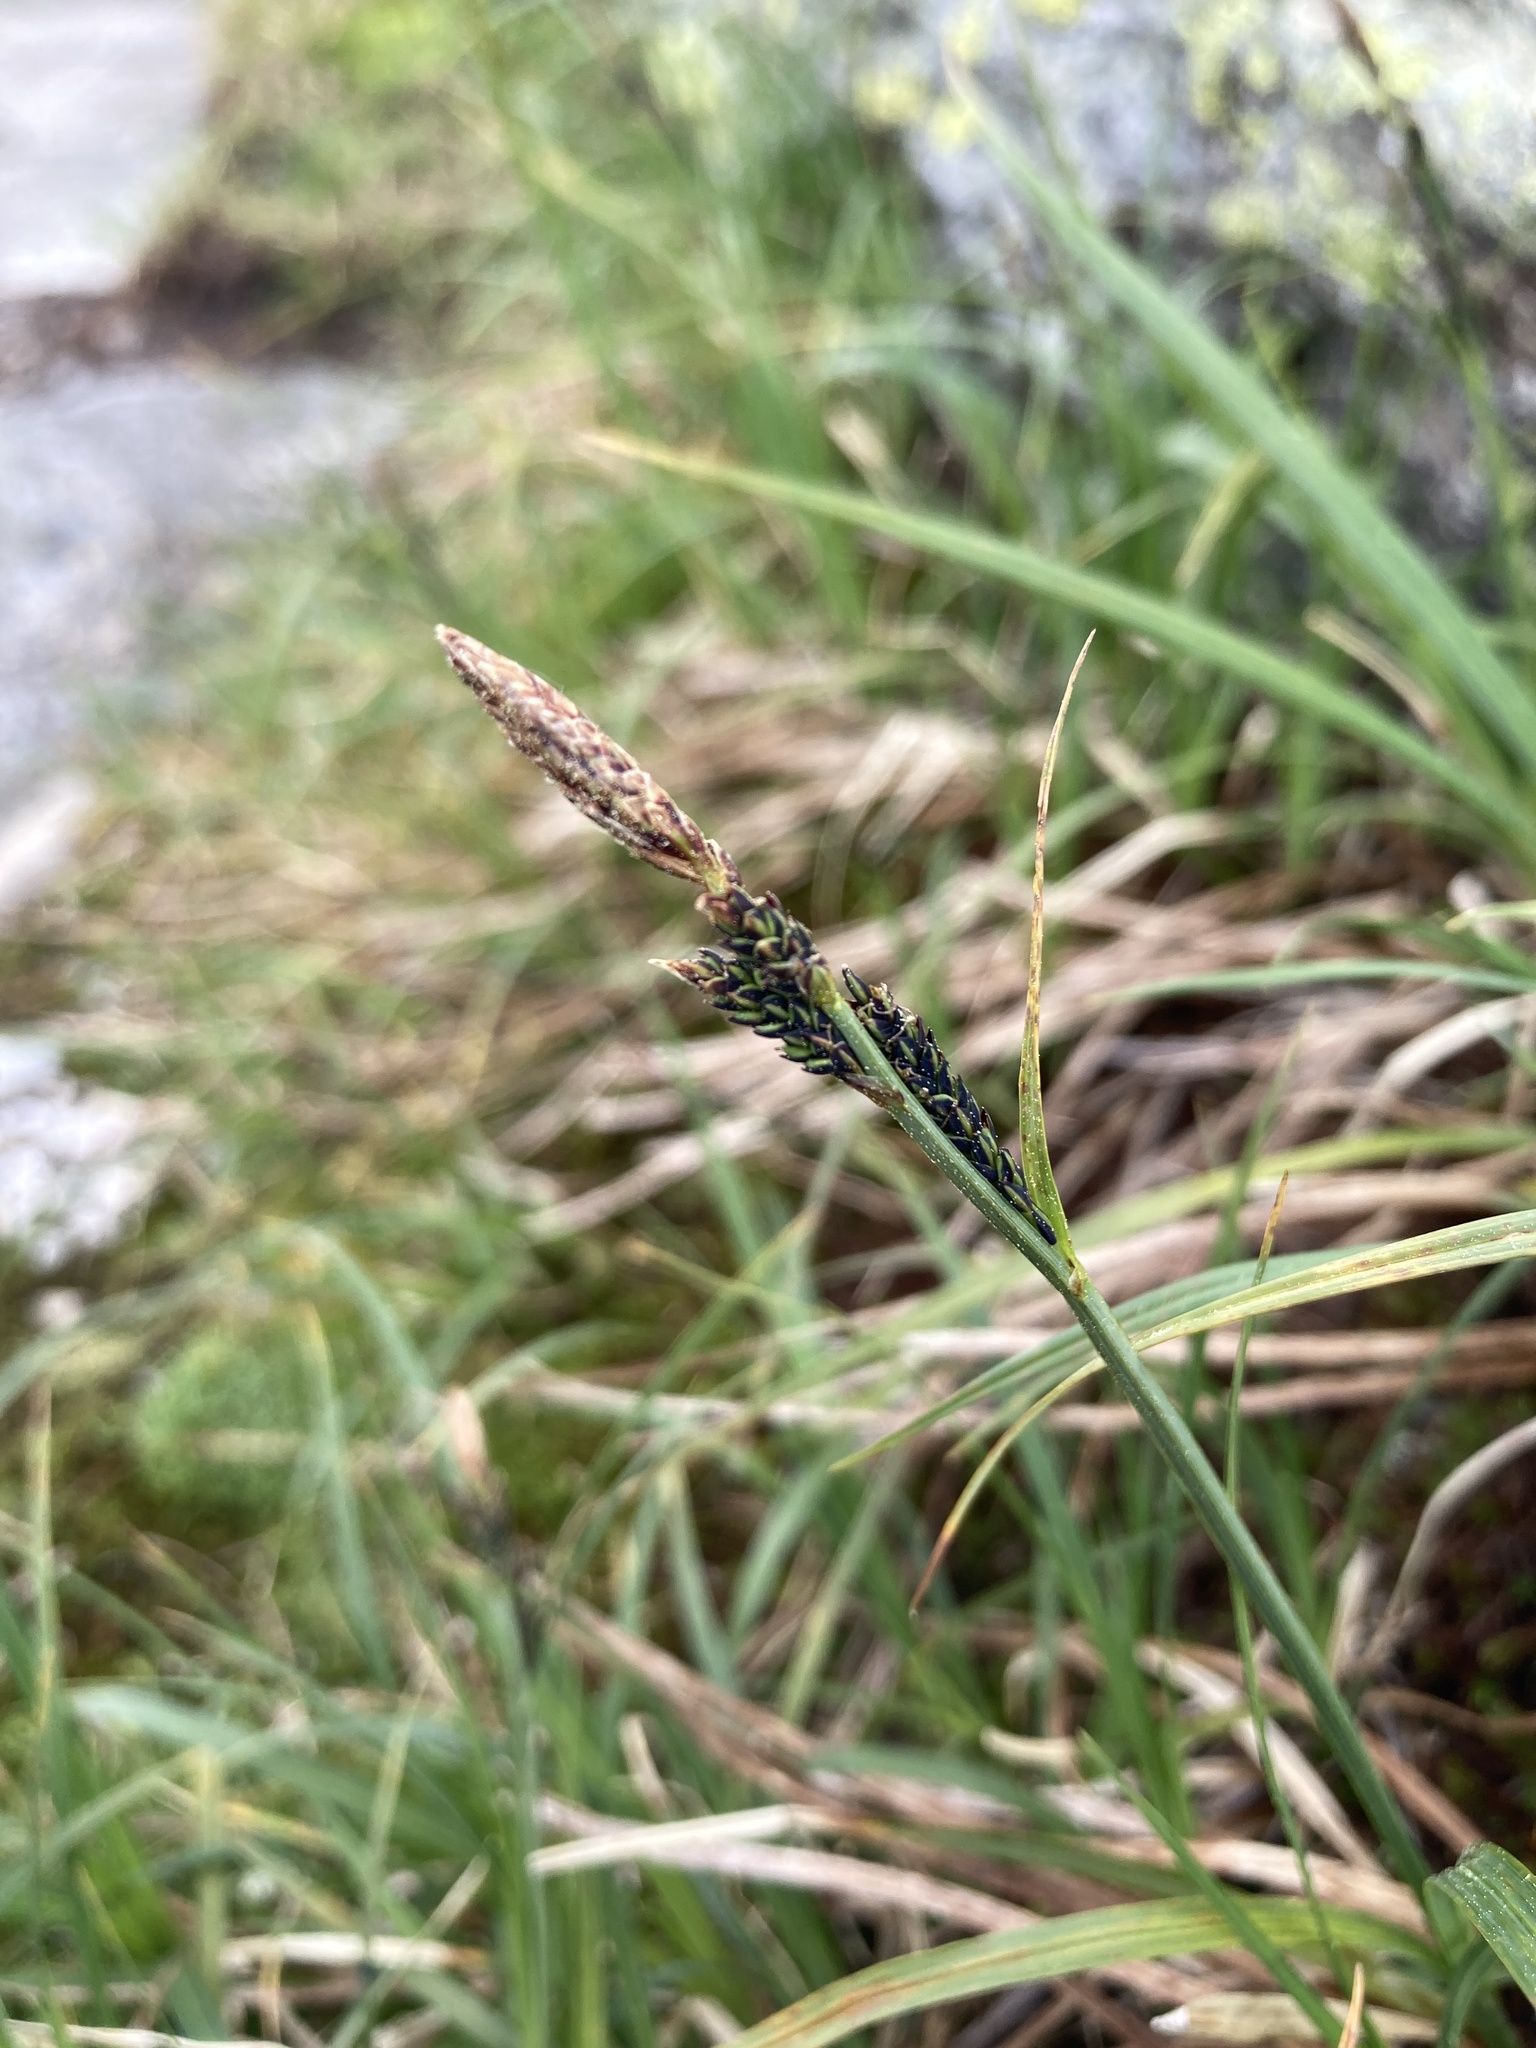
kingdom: Plantae
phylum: Tracheophyta
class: Liliopsida
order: Poales
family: Cyperaceae
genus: Carex
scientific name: Carex bigelowii
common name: Stiff sedge
